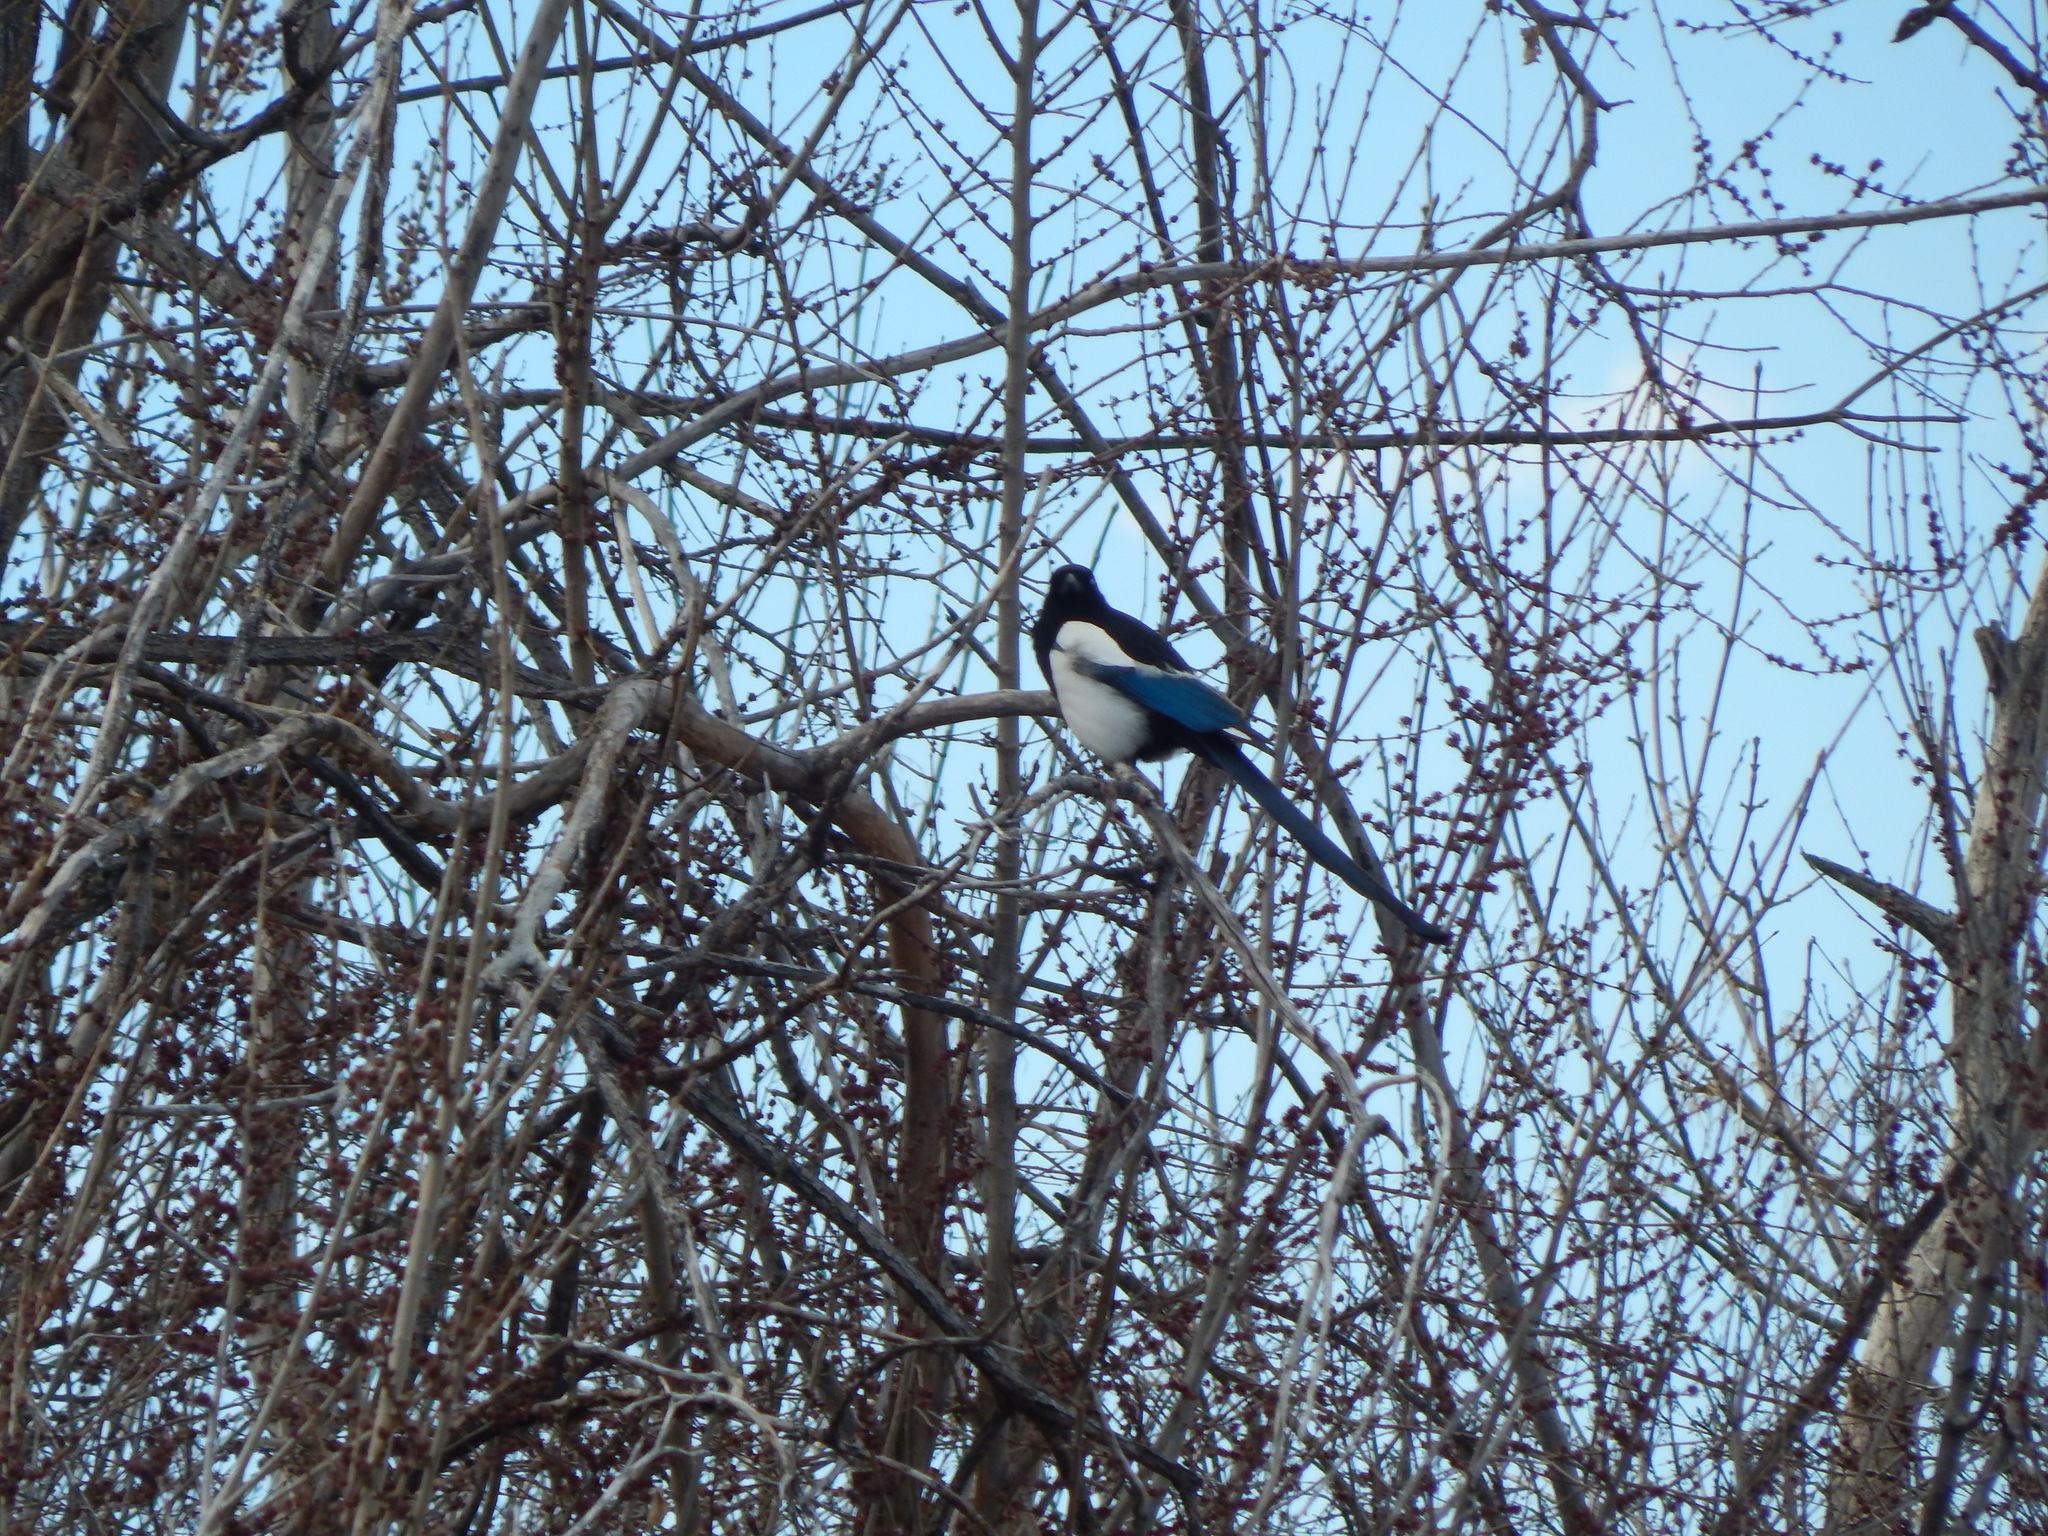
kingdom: Animalia
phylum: Chordata
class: Aves
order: Passeriformes
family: Corvidae
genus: Pica
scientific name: Pica hudsonia
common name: Black-billed magpie
